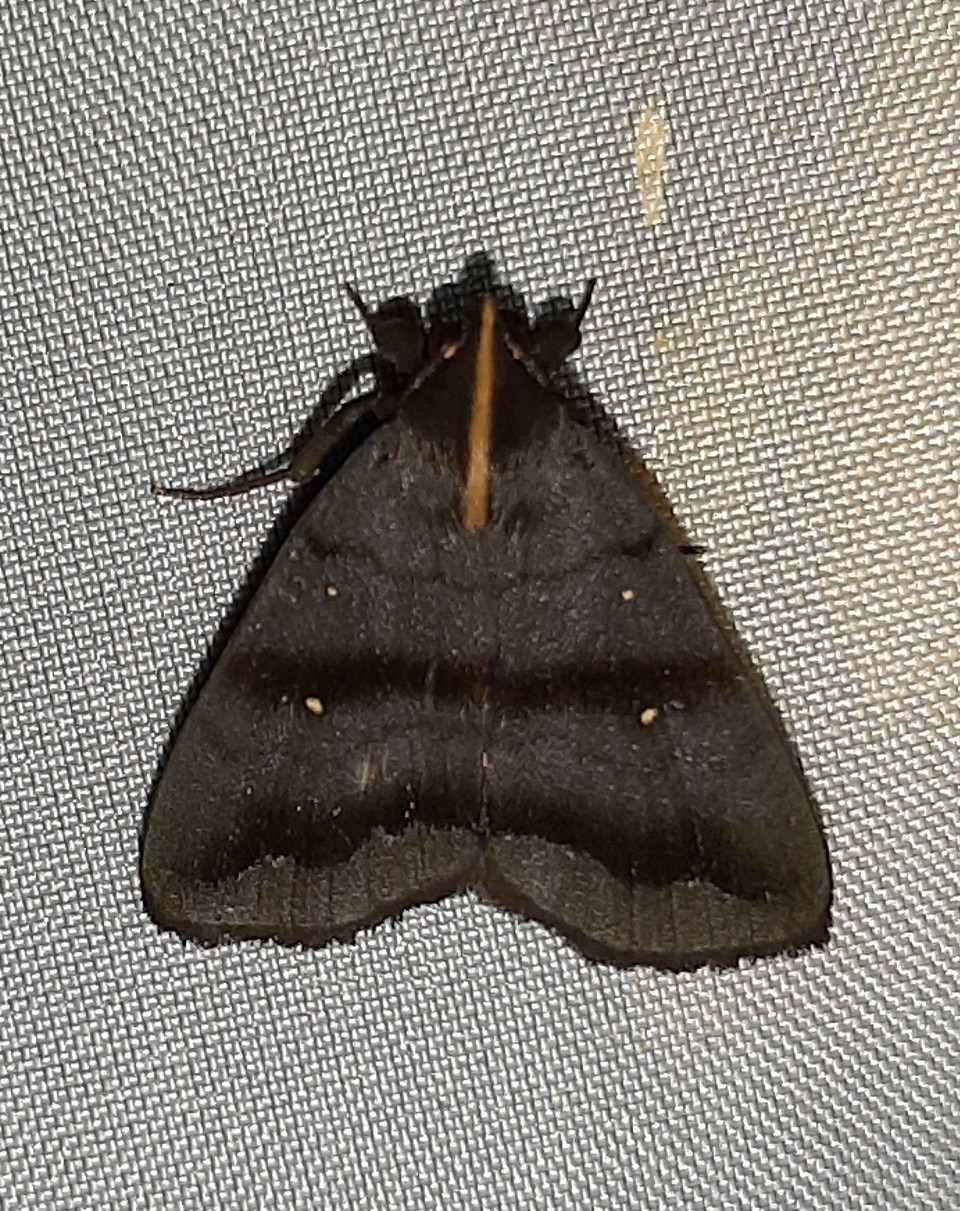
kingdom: Animalia
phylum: Arthropoda
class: Insecta
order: Lepidoptera
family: Erebidae
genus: Rejectaria
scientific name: Rejectaria lysandria
